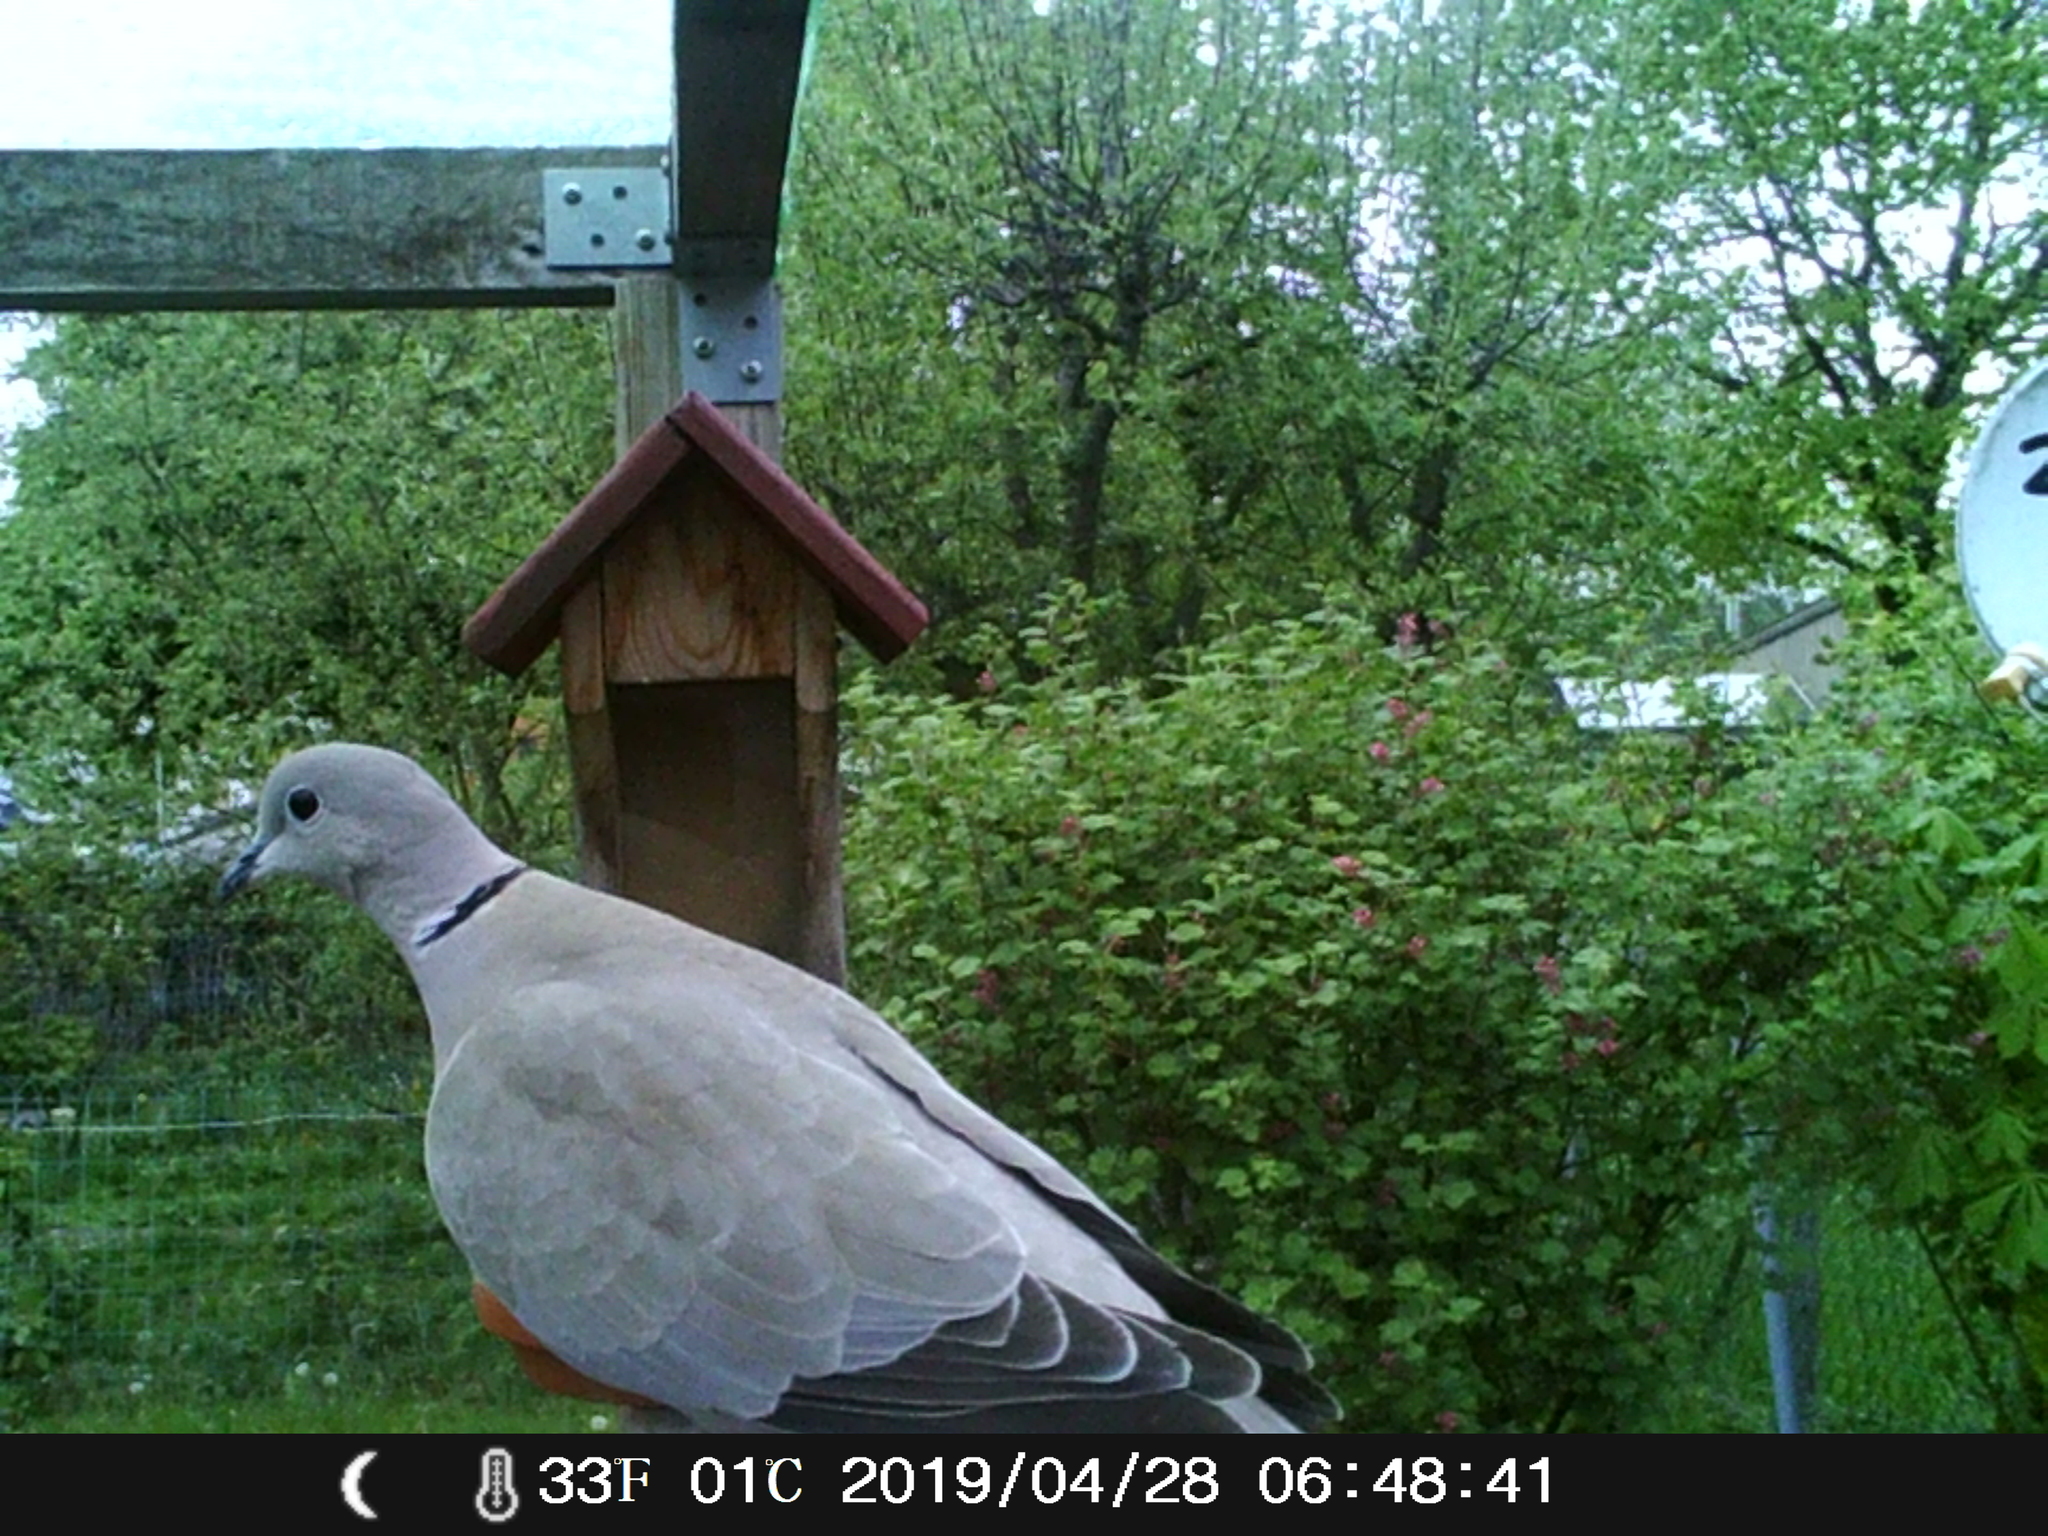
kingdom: Animalia
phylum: Chordata
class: Aves
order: Columbiformes
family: Columbidae
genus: Streptopelia
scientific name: Streptopelia decaocto
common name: Eurasian collared dove
